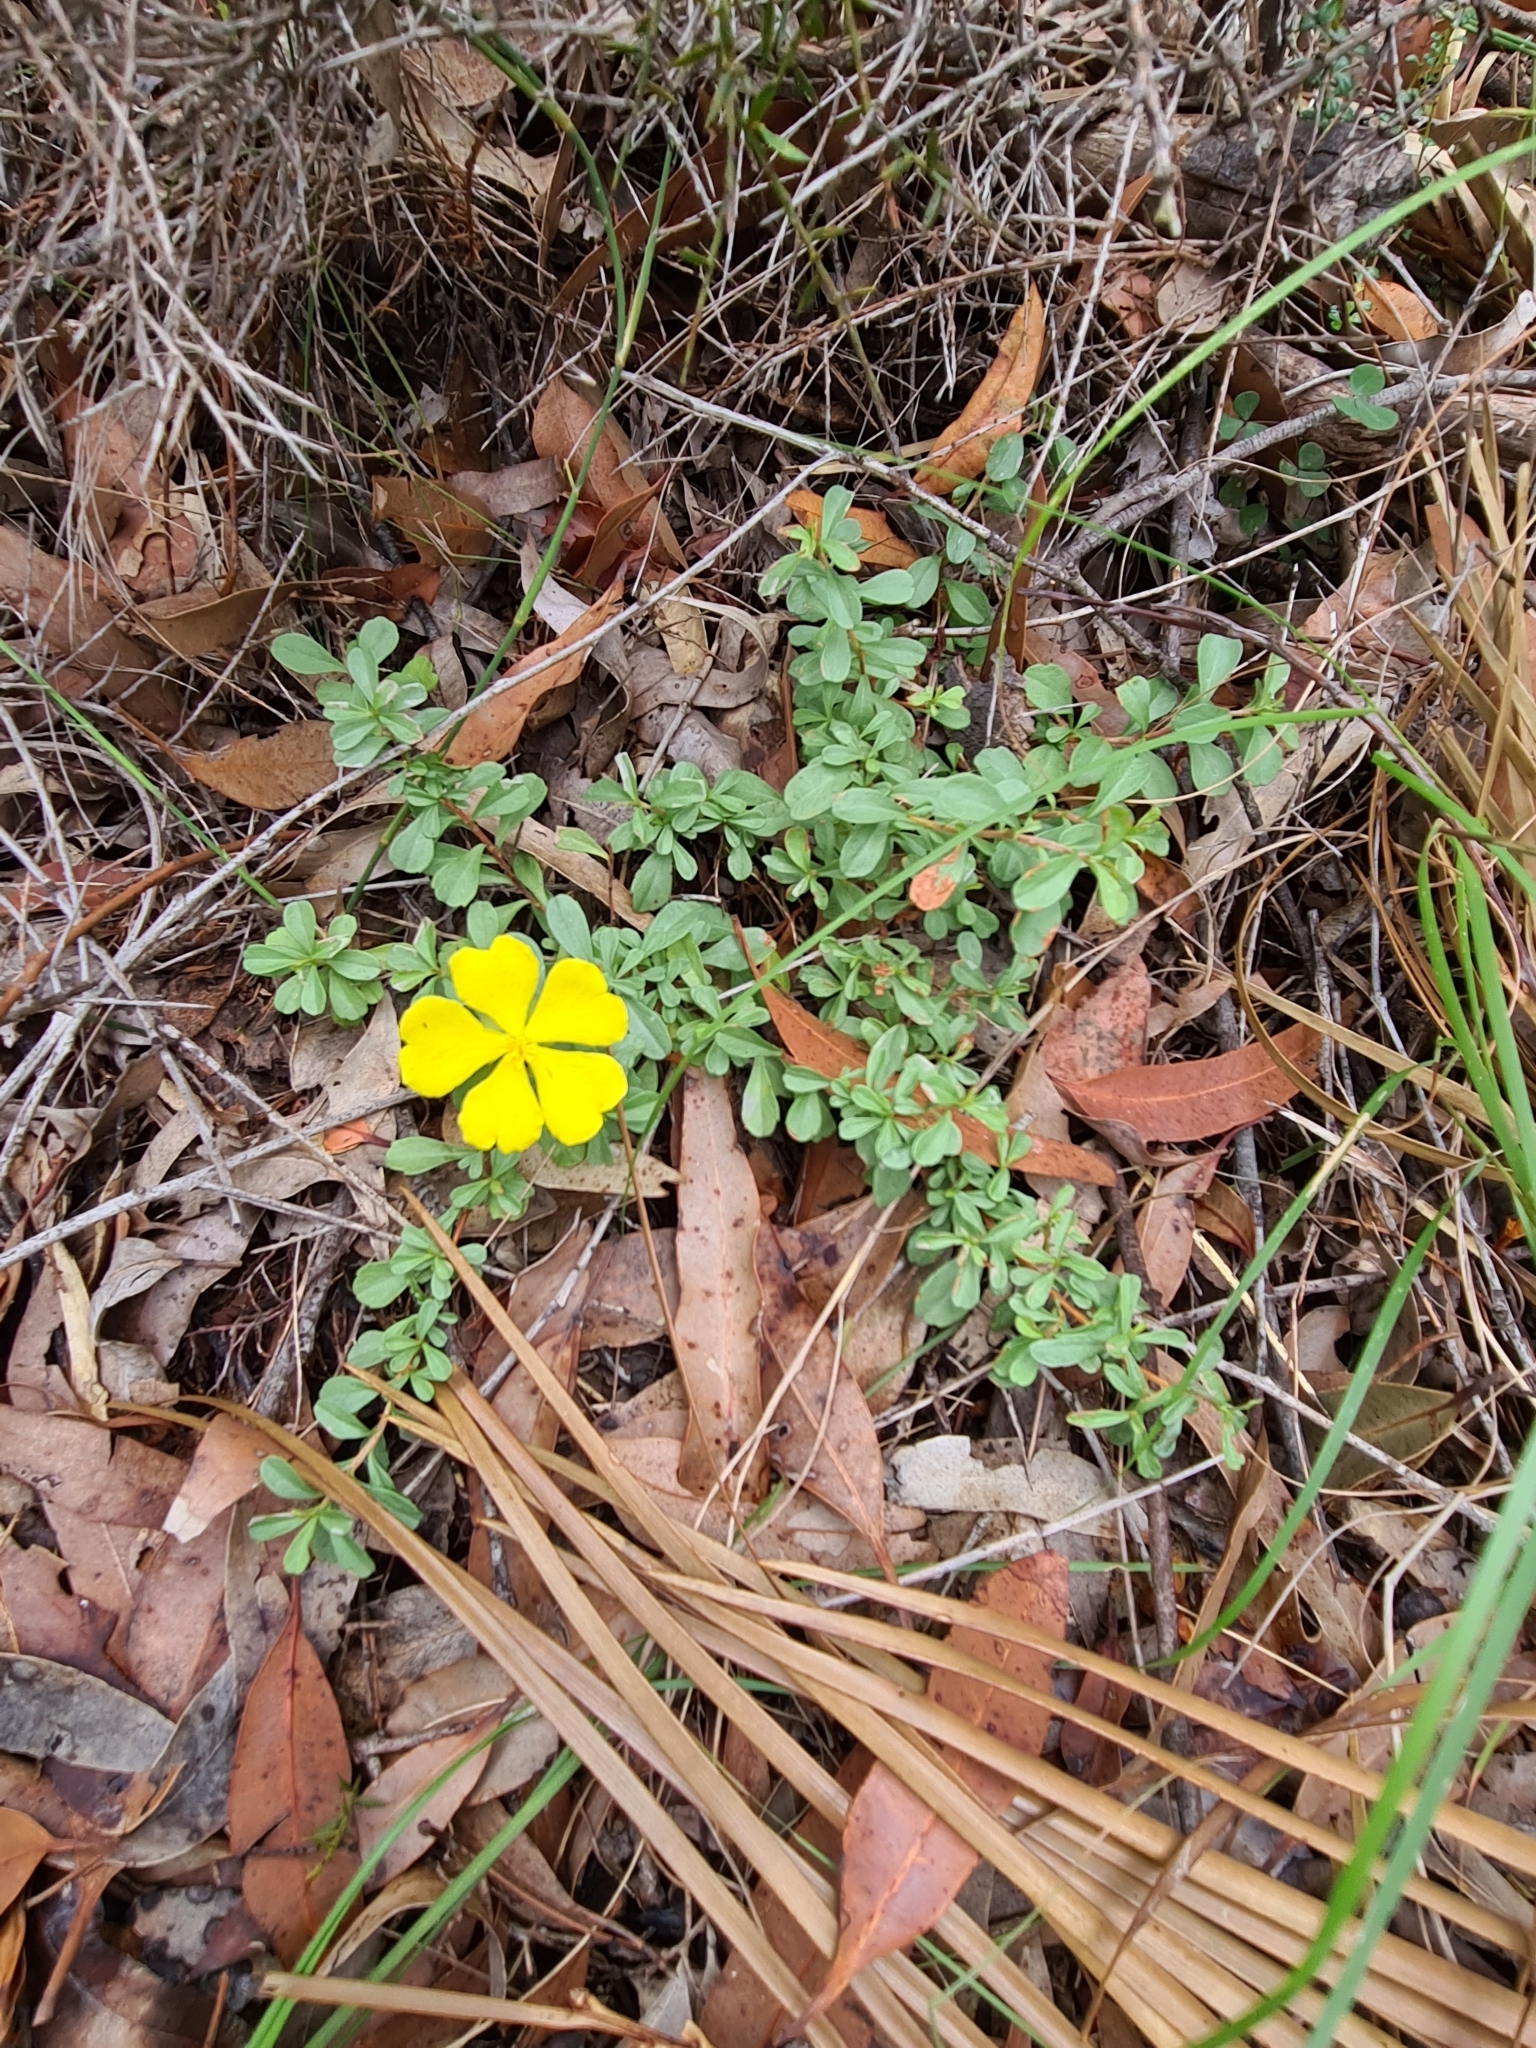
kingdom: Plantae
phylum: Tracheophyta
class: Magnoliopsida
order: Dilleniales
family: Dilleniaceae
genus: Hibbertia
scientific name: Hibbertia diffusa
